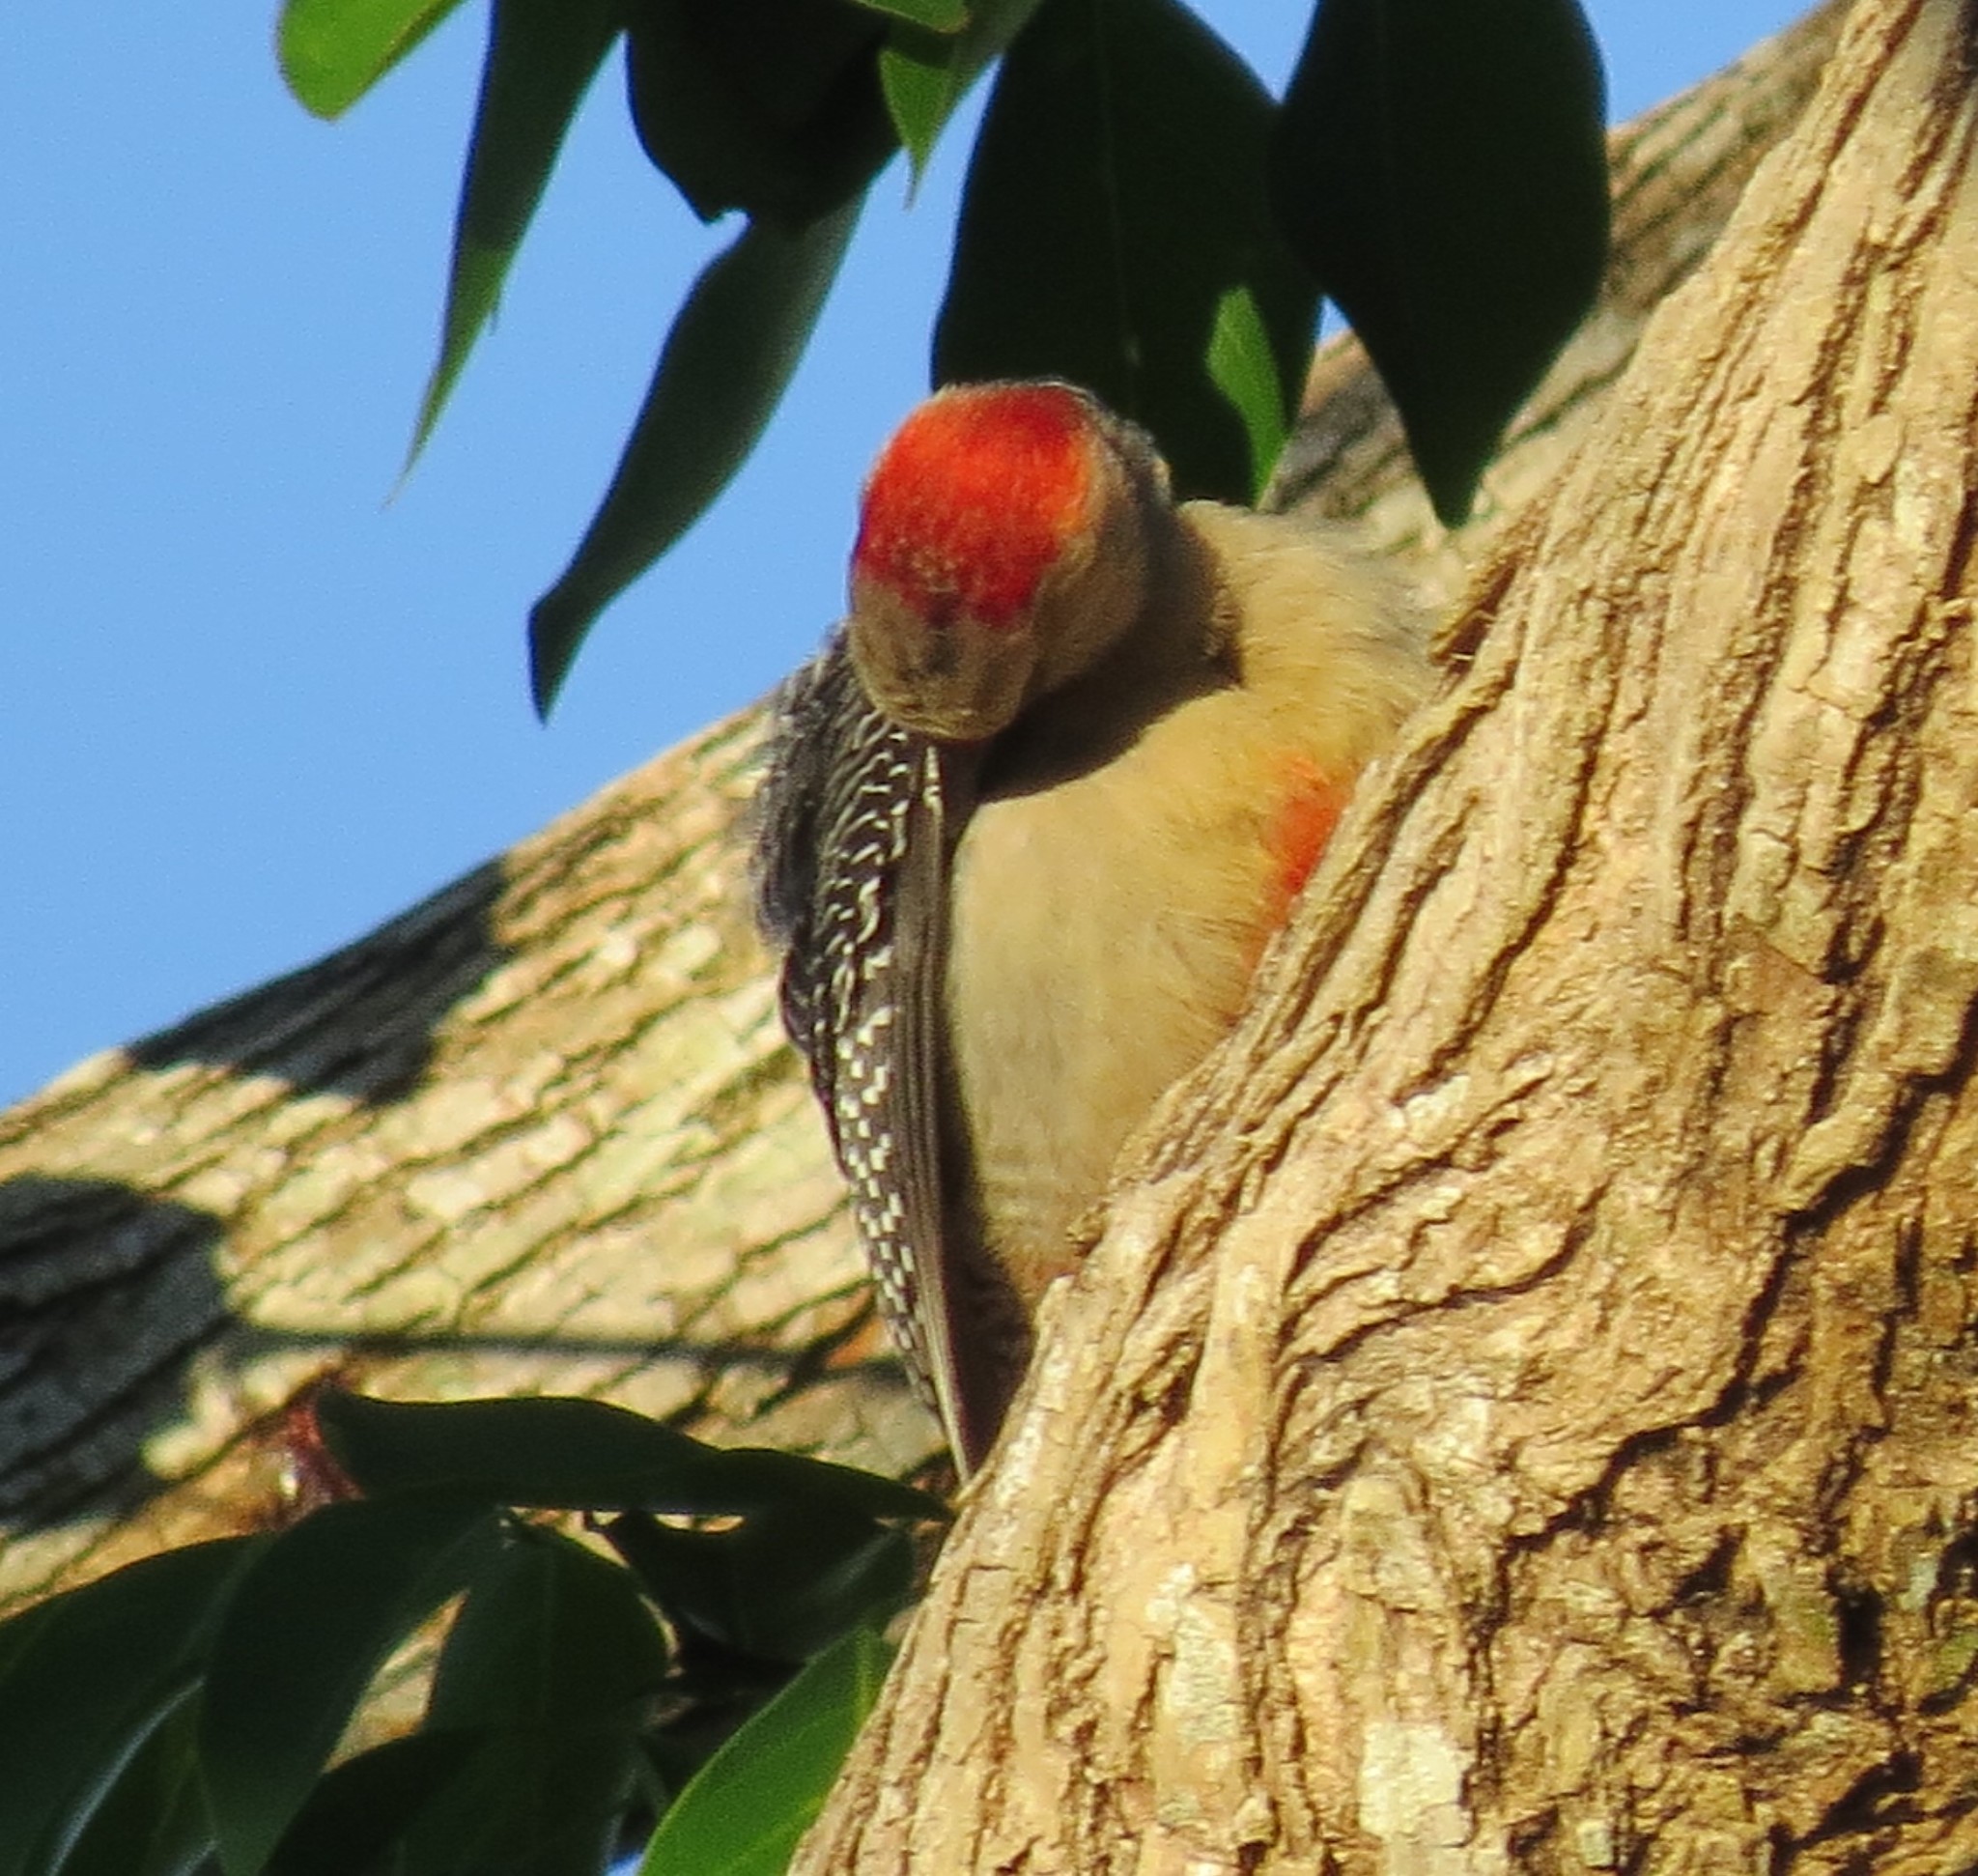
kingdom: Animalia
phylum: Chordata
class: Aves
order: Piciformes
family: Picidae
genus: Melanerpes
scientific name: Melanerpes aurifrons
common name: Golden-fronted woodpecker
